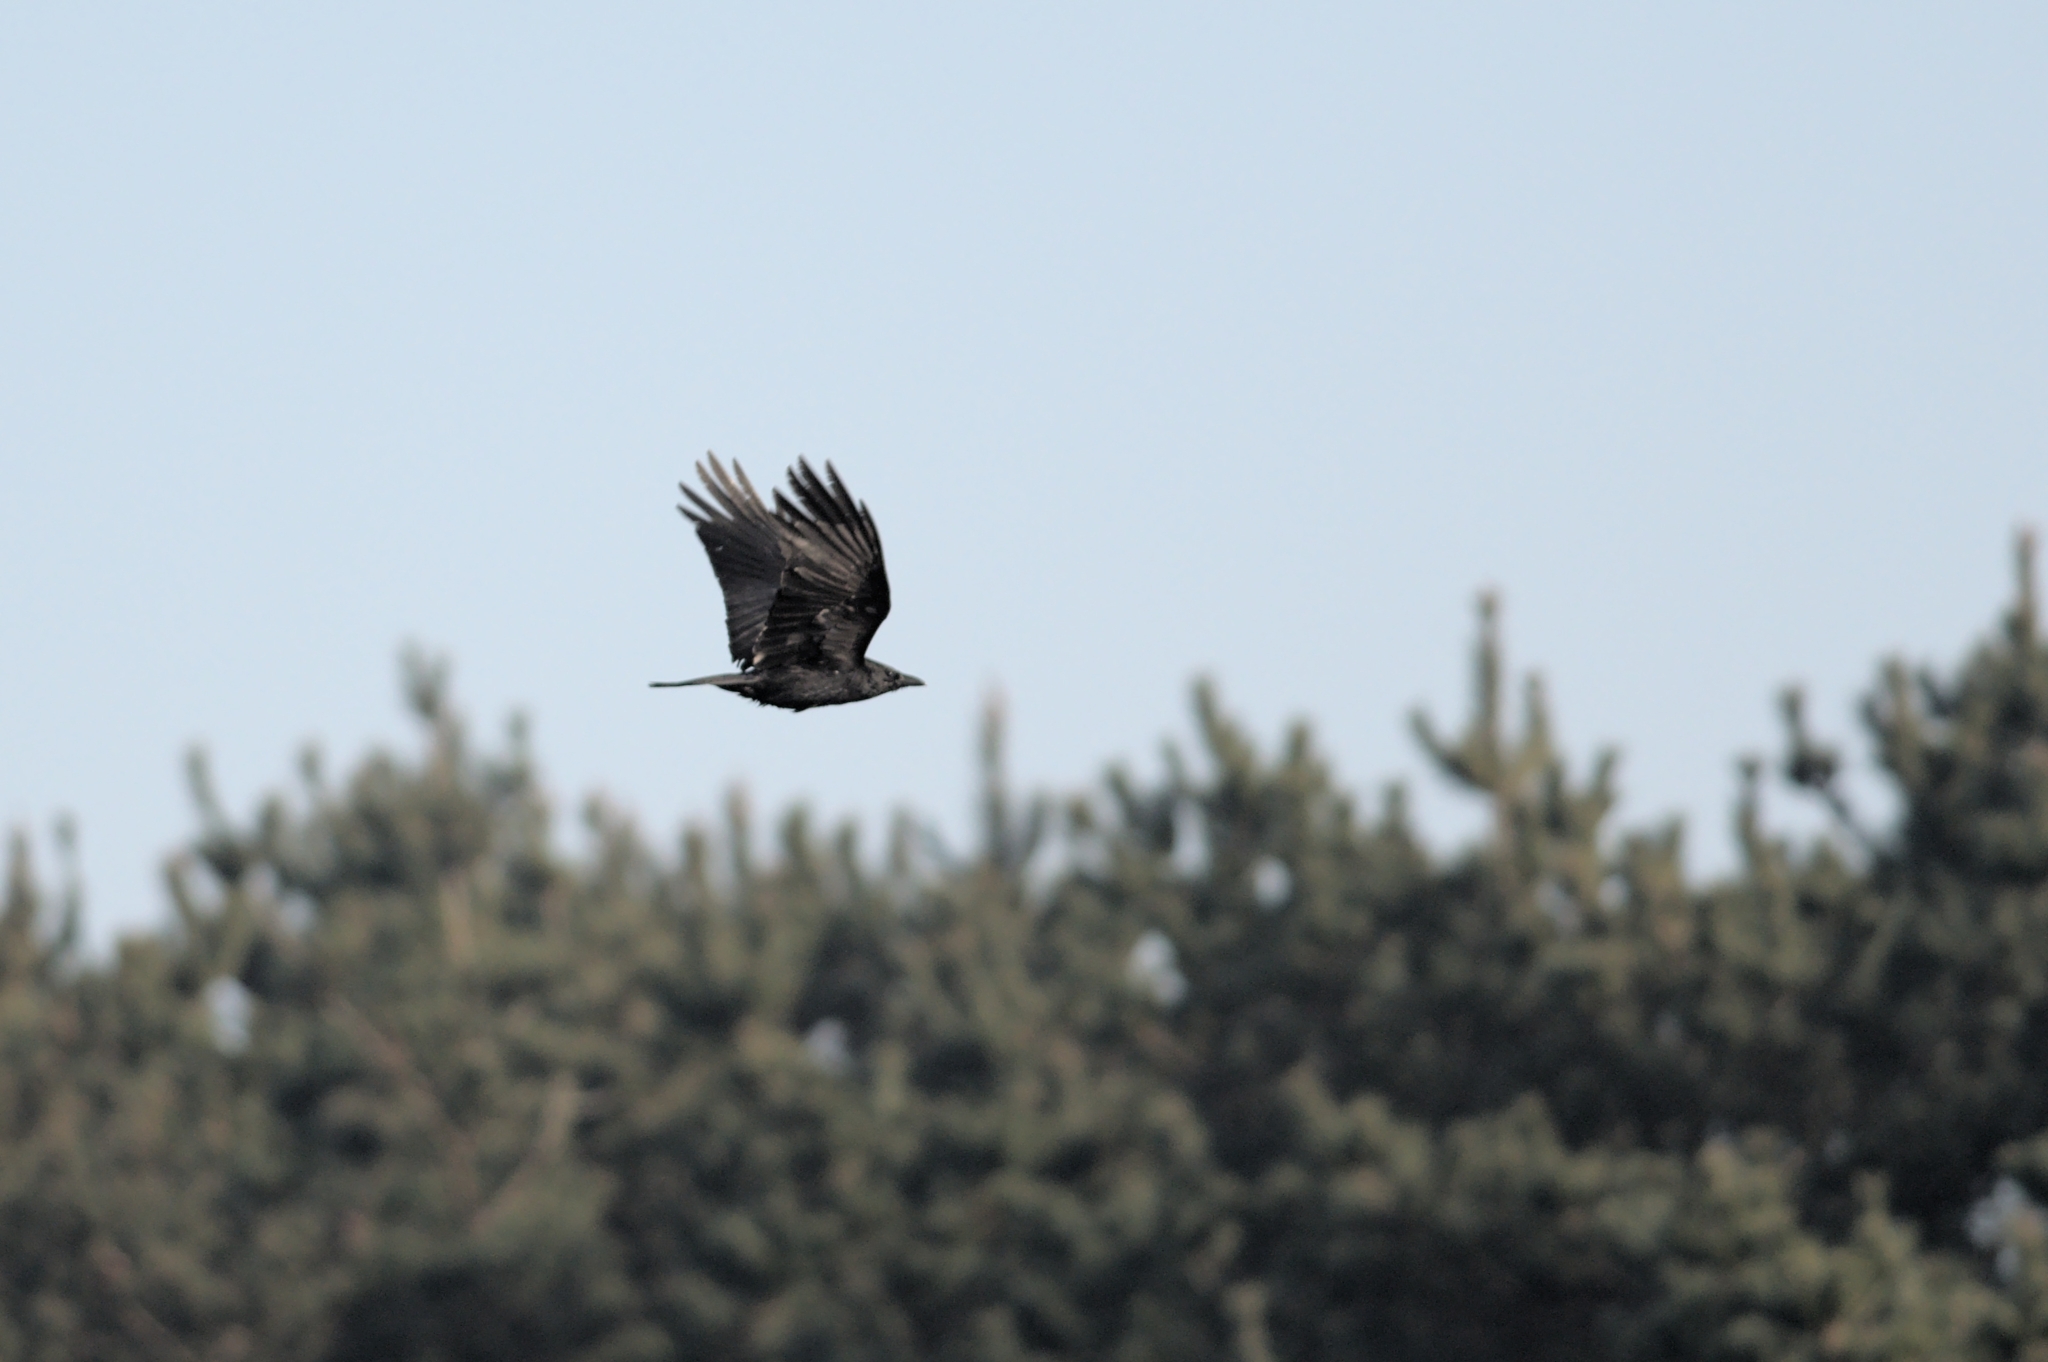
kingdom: Animalia
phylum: Chordata
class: Aves
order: Passeriformes
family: Corvidae
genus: Corvus
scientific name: Corvus corone
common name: Carrion crow
